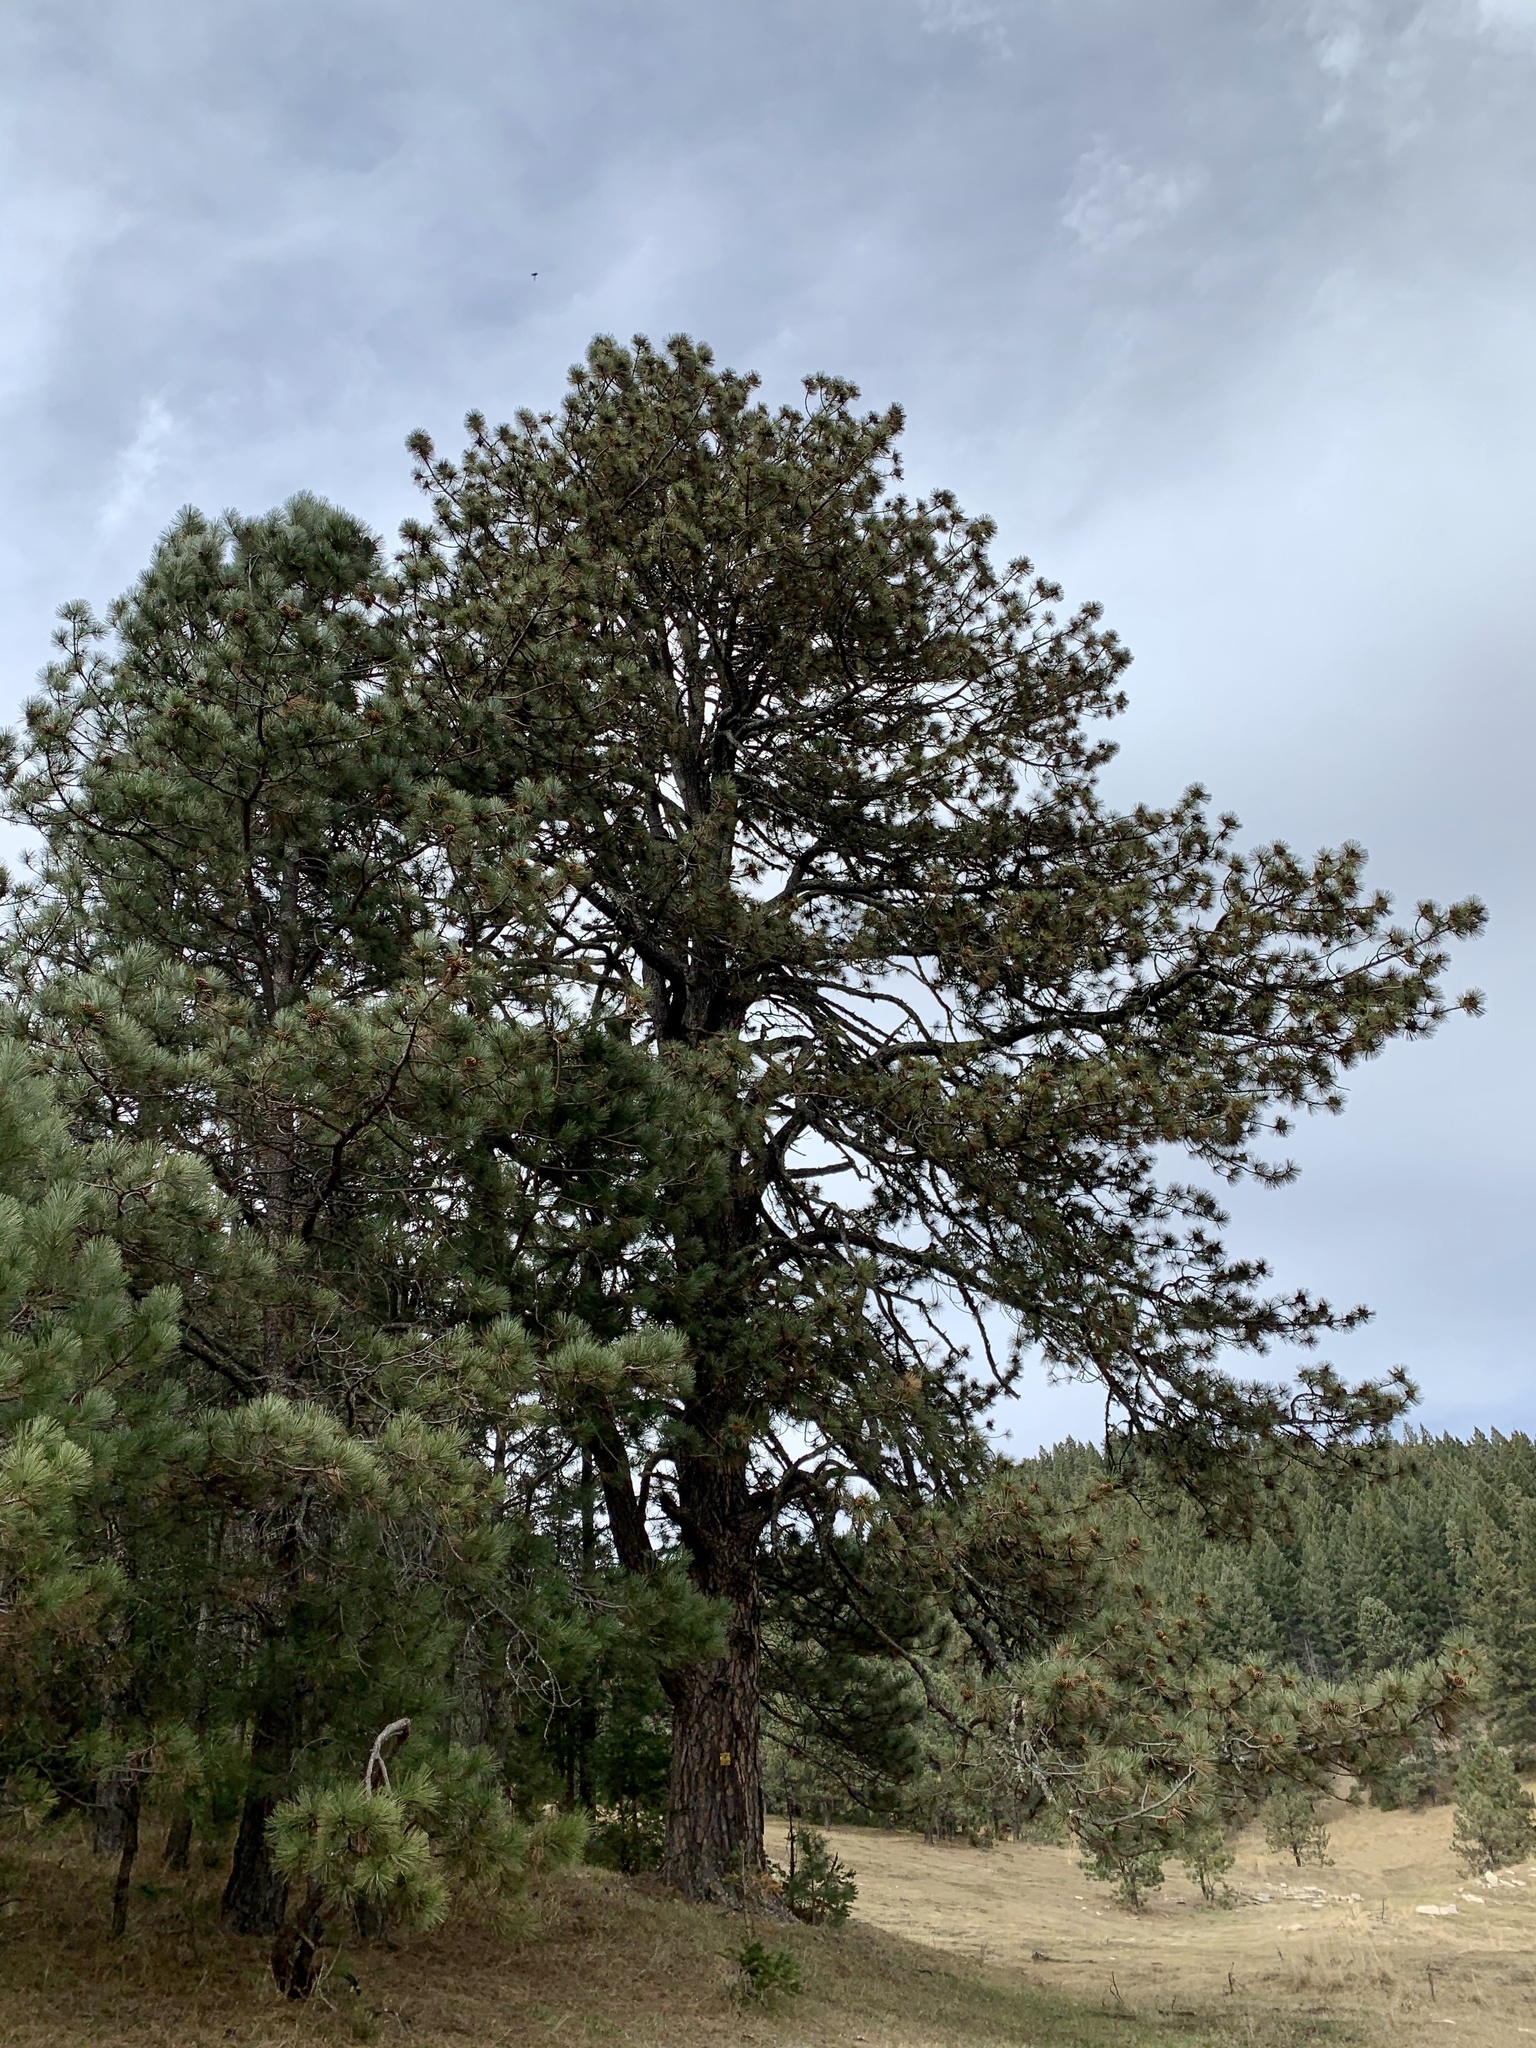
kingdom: Plantae
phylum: Tracheophyta
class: Pinopsida
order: Pinales
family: Pinaceae
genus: Pinus
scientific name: Pinus ponderosa
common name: Western yellow-pine
